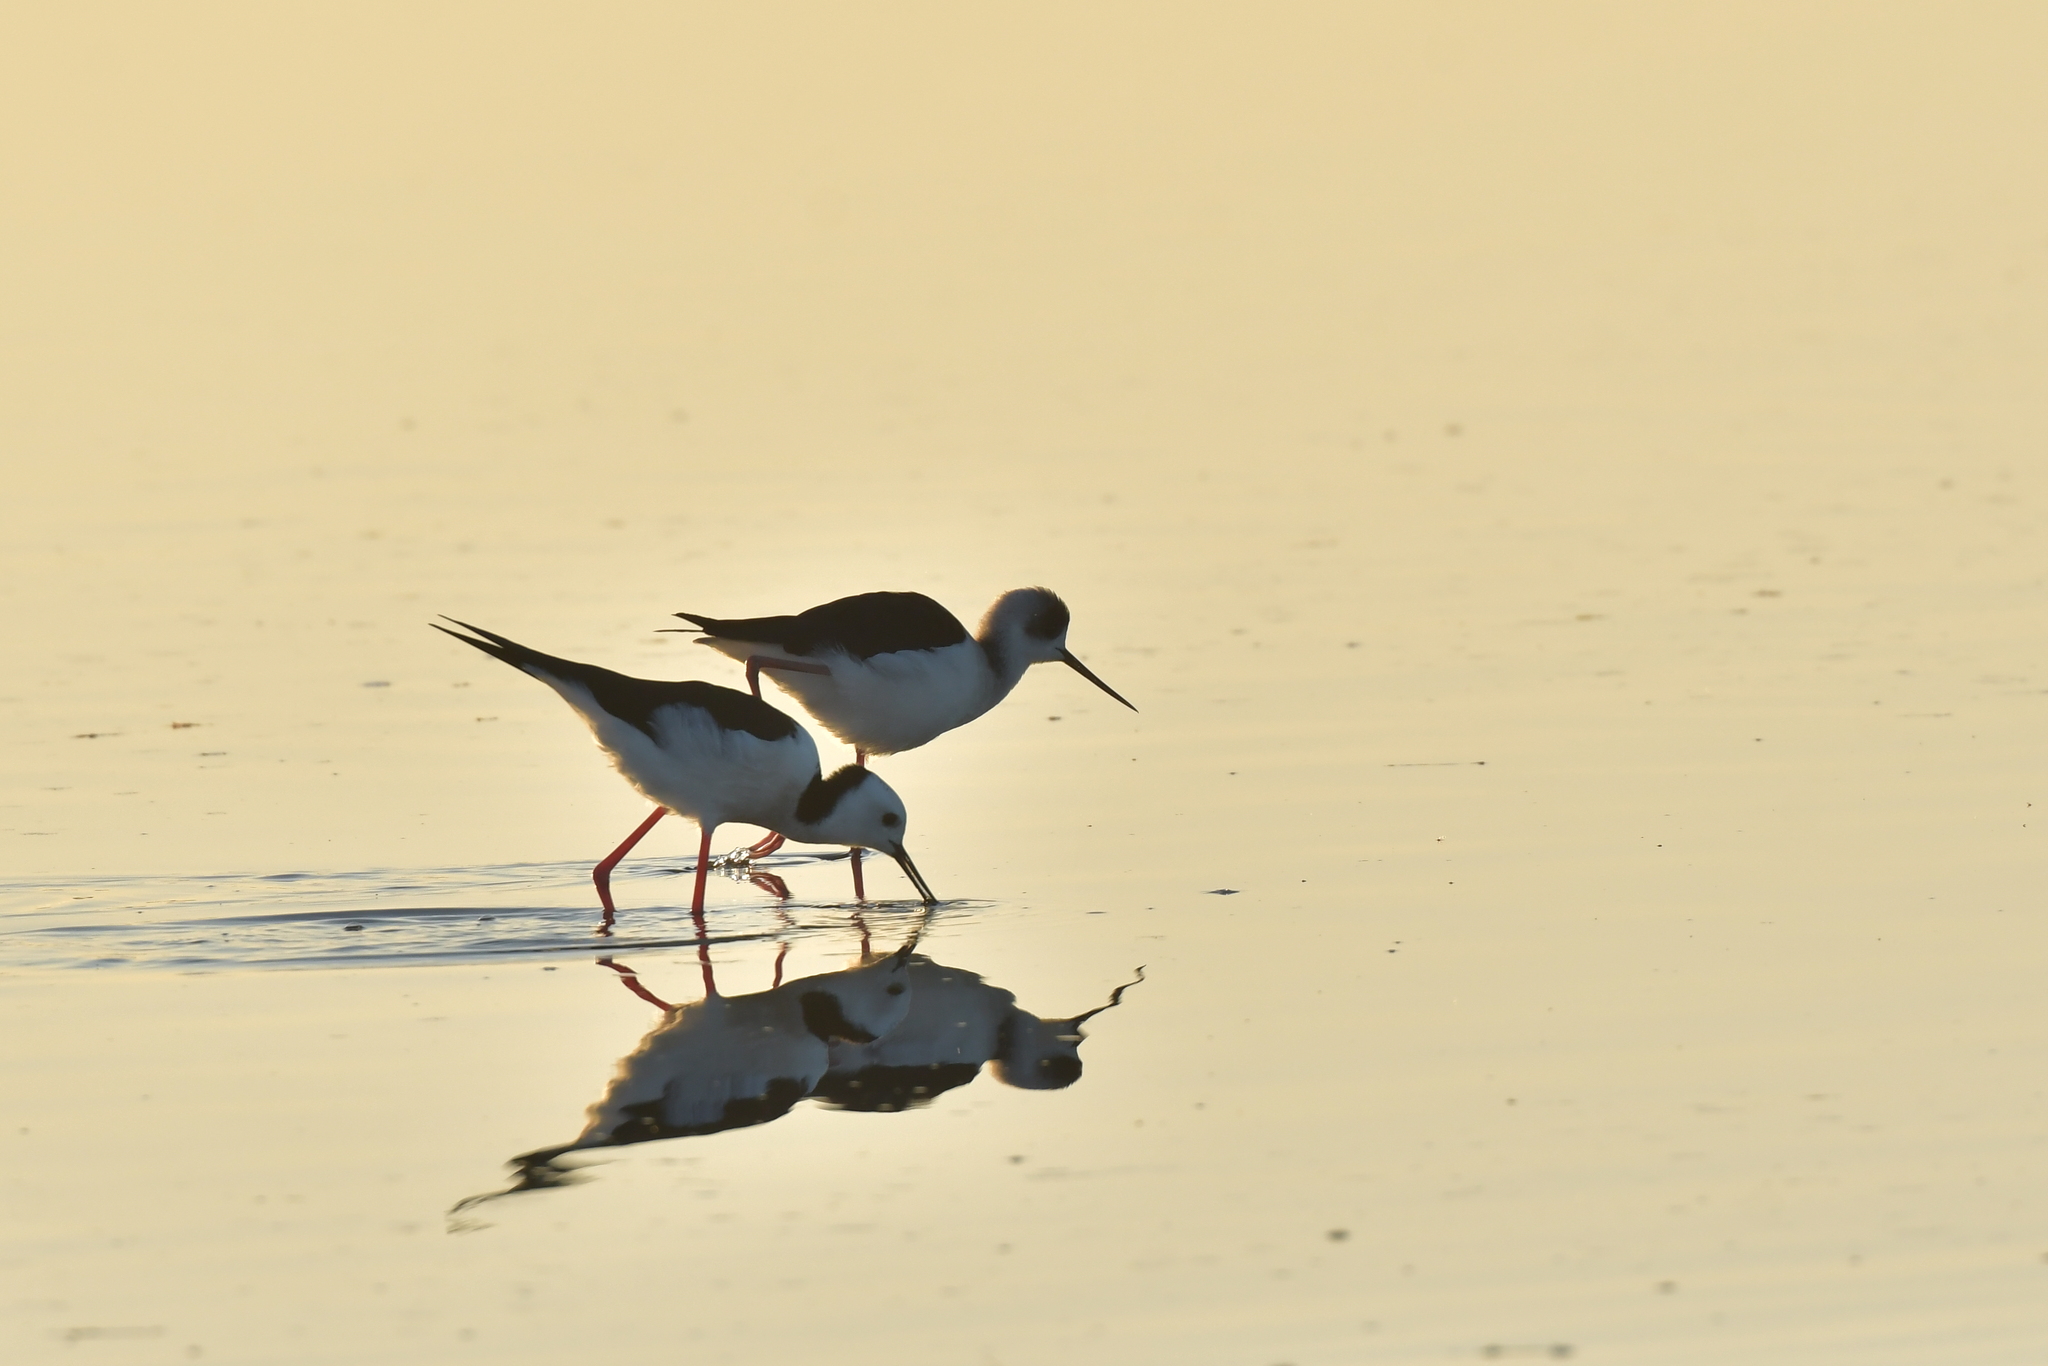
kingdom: Animalia
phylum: Chordata
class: Aves
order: Charadriiformes
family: Recurvirostridae
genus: Himantopus
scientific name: Himantopus leucocephalus
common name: White-headed stilt
